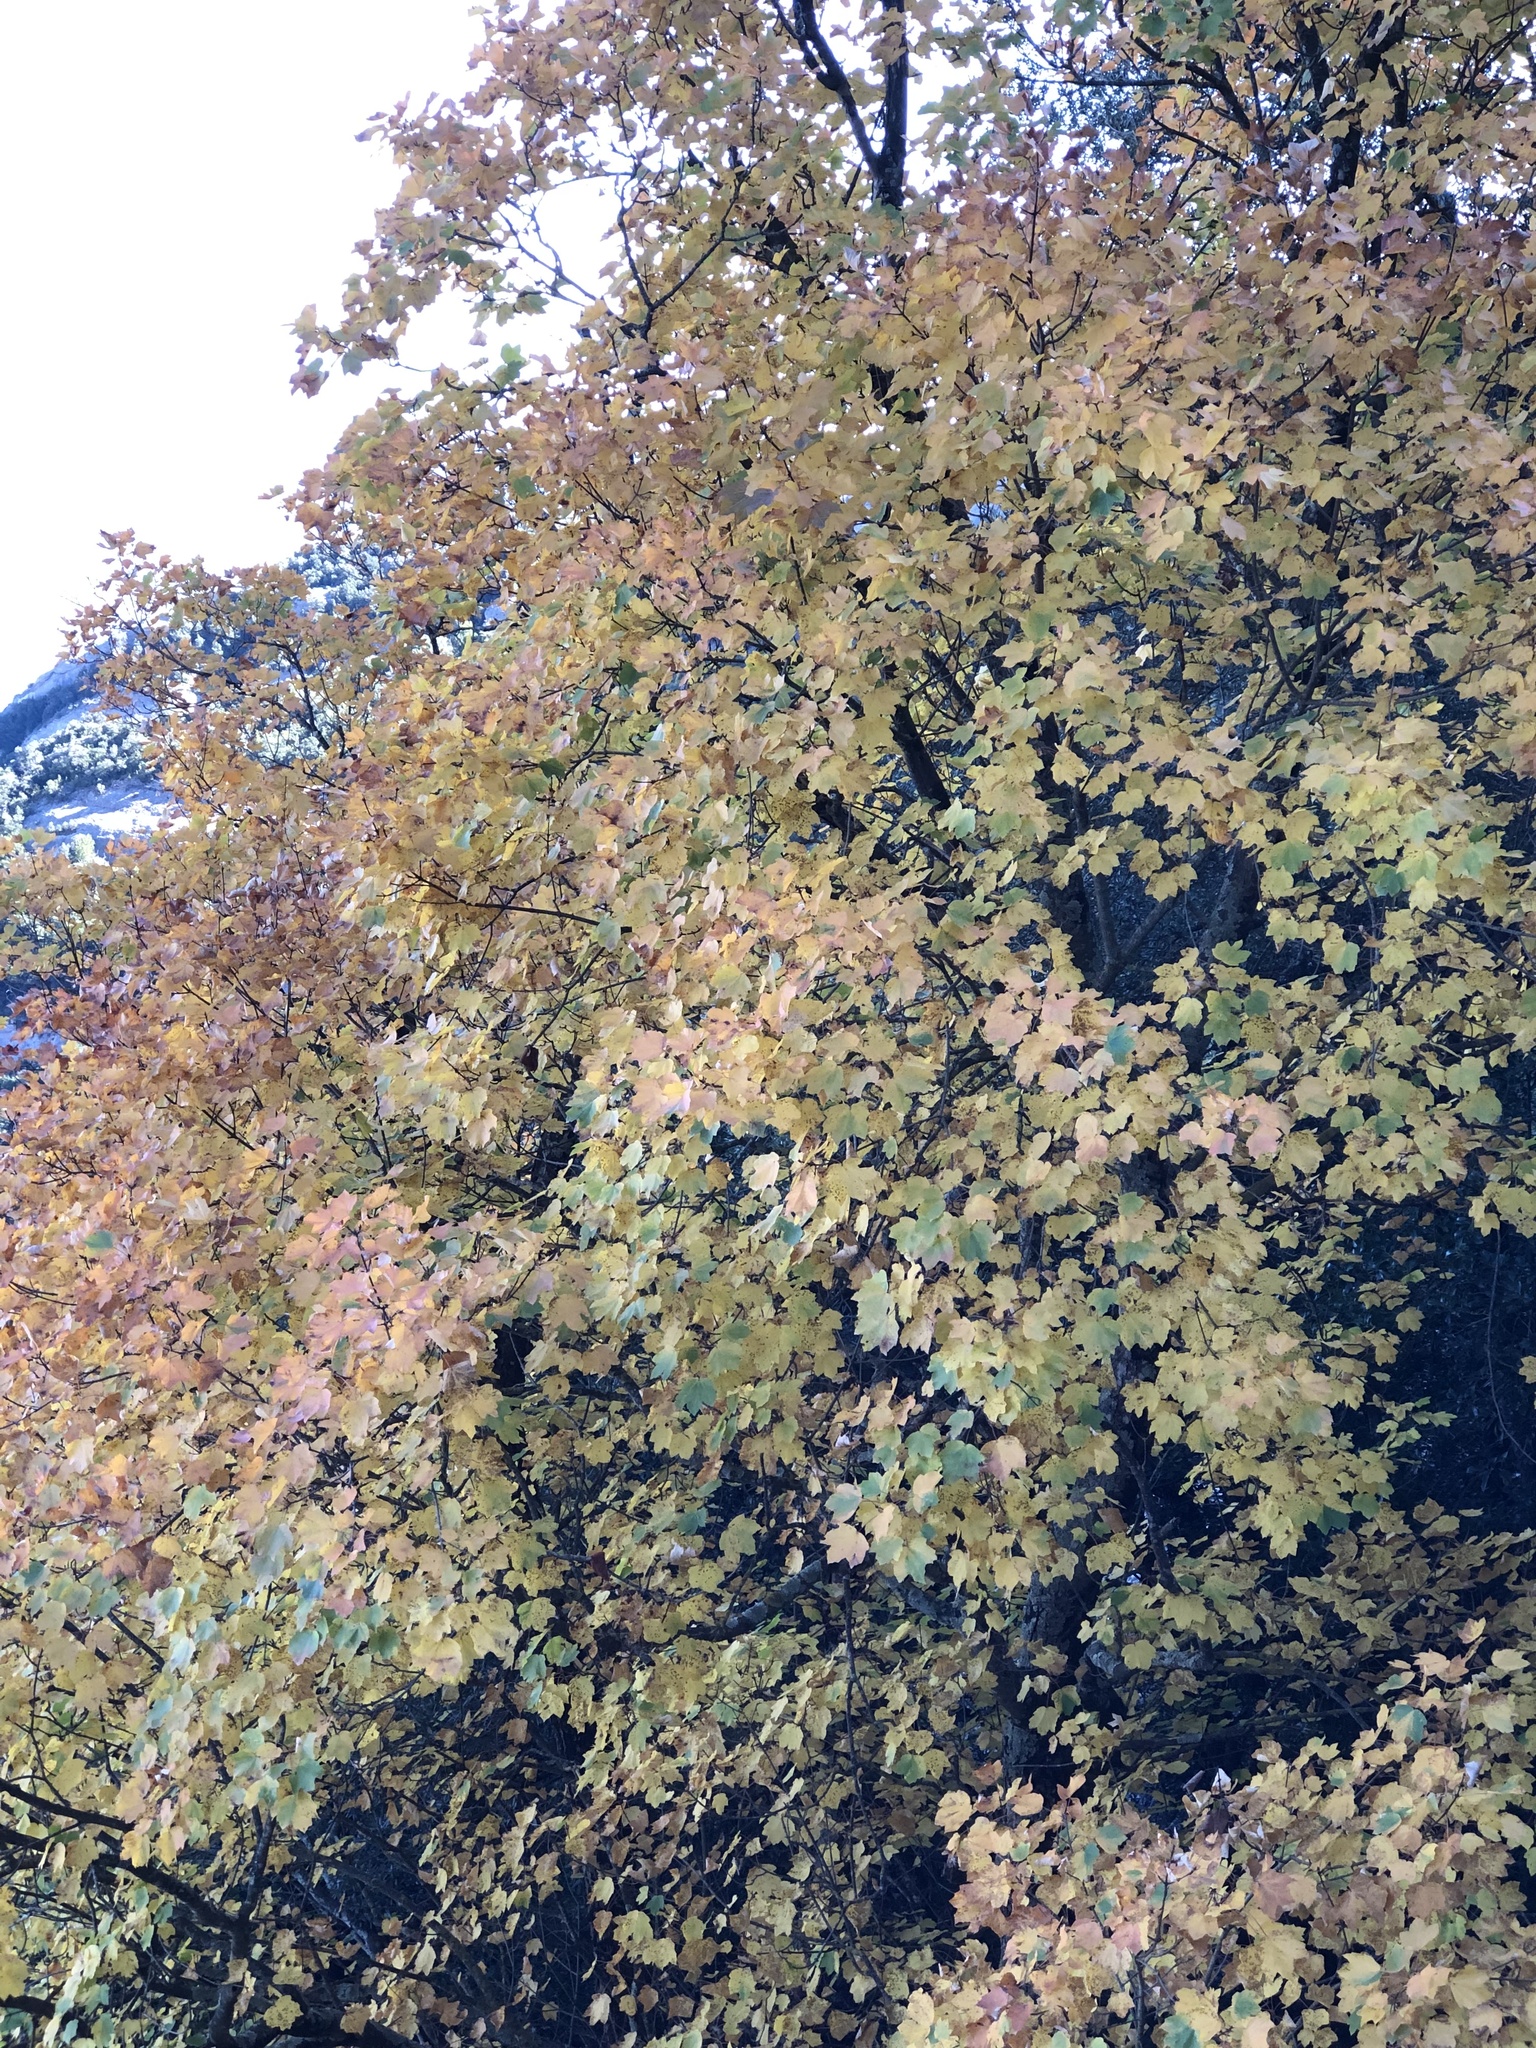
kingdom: Plantae
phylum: Tracheophyta
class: Magnoliopsida
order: Sapindales
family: Sapindaceae
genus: Acer
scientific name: Acer opalus
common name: Italian maple
